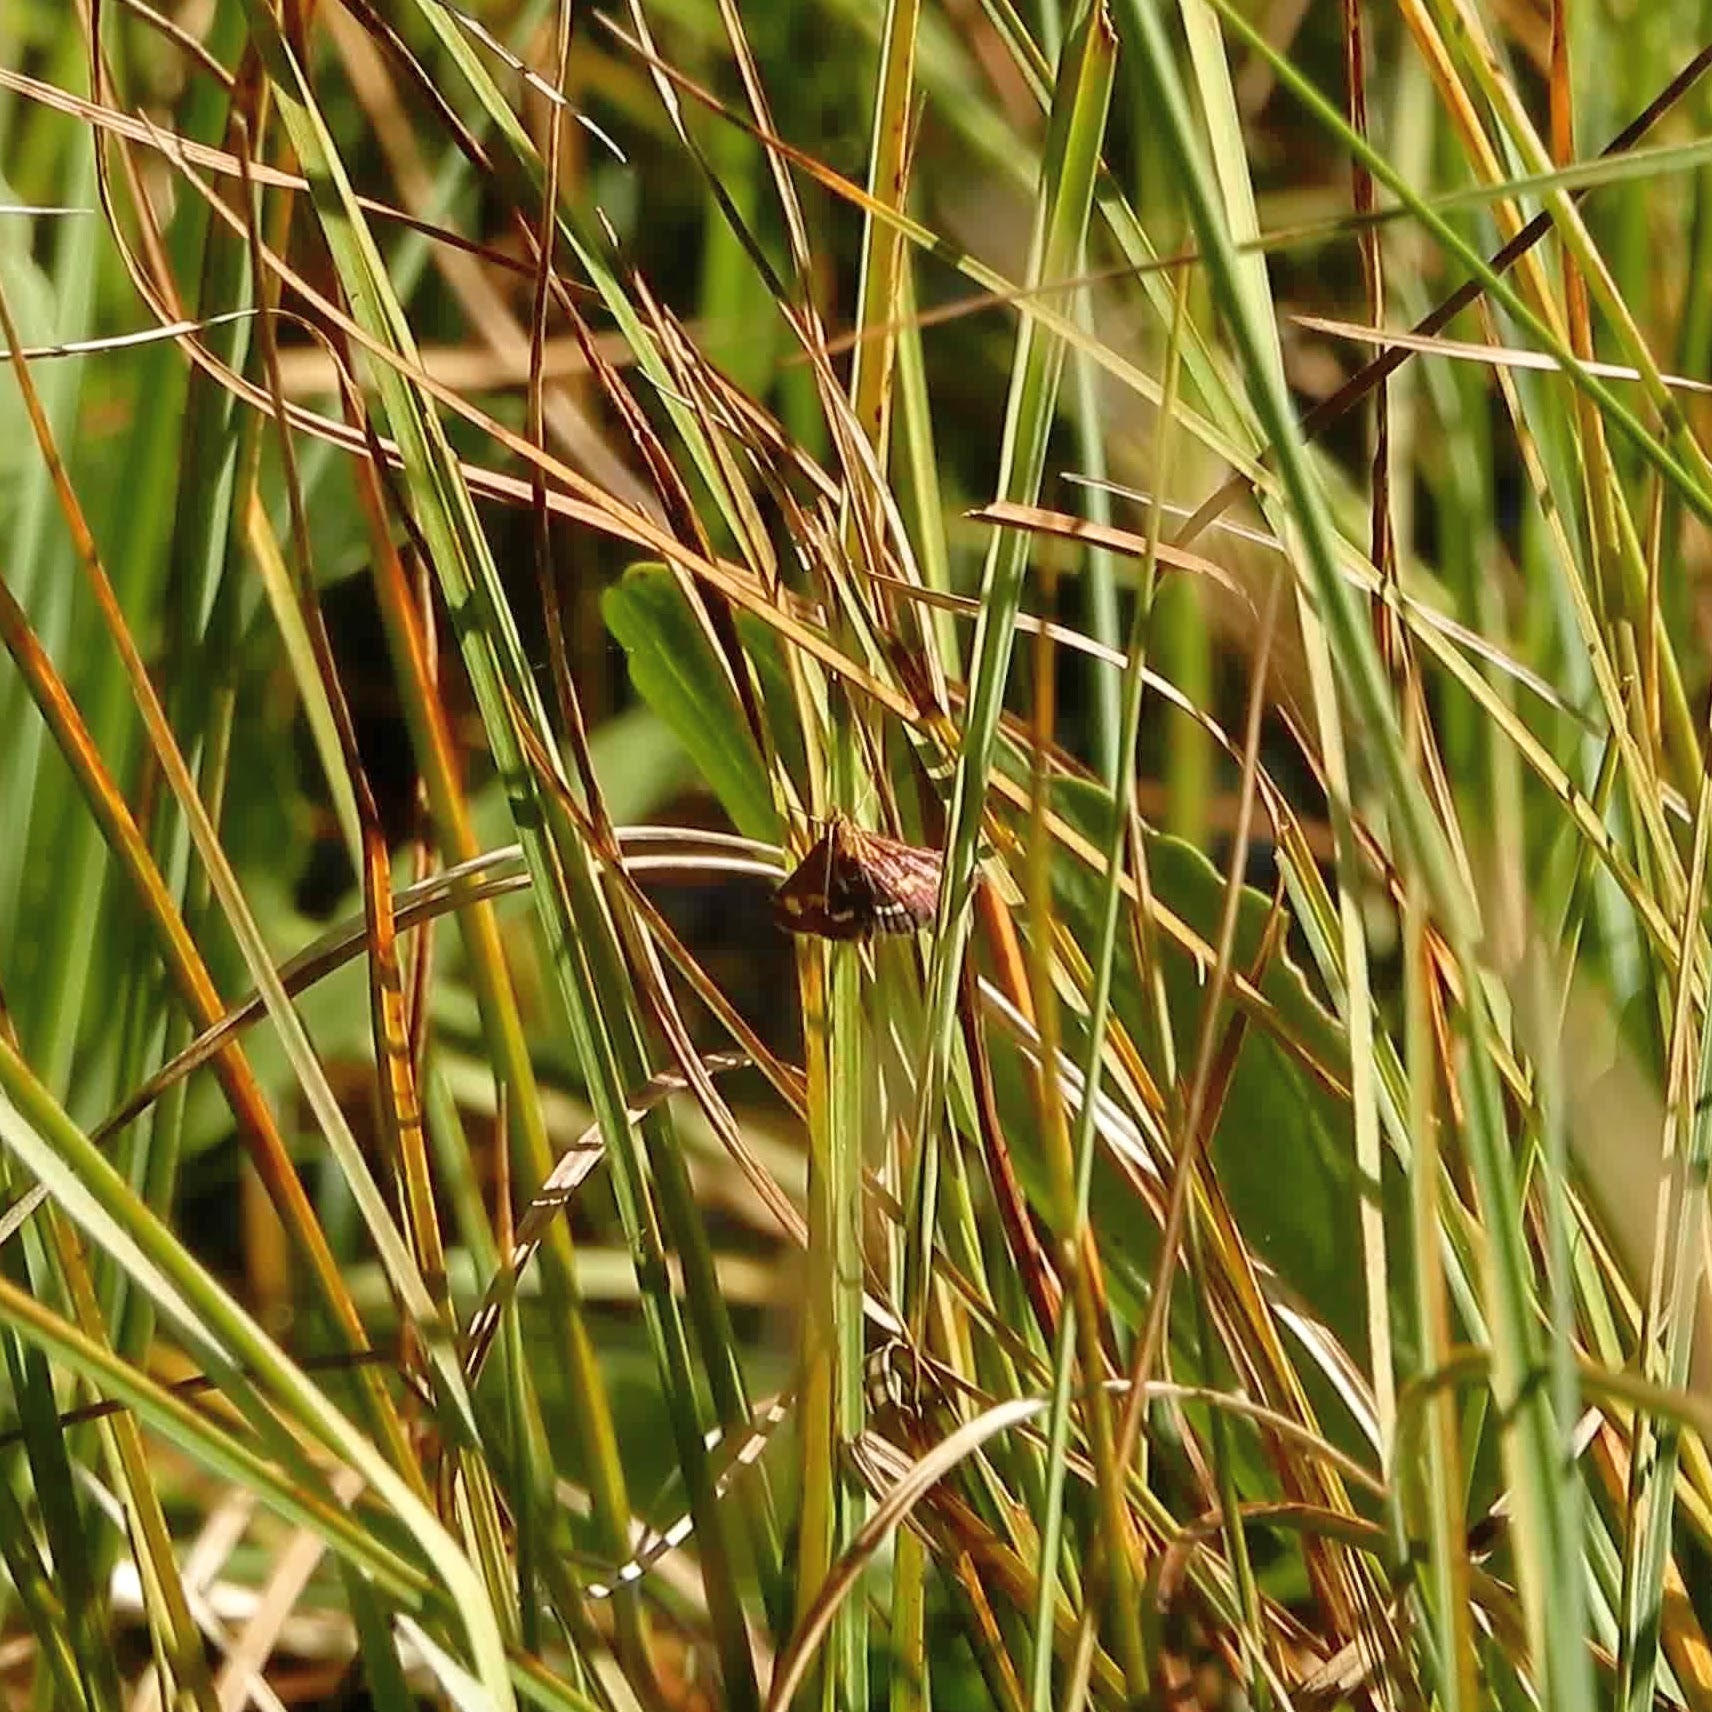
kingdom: Animalia
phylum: Arthropoda
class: Insecta
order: Lepidoptera
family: Crambidae
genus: Pyrausta
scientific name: Pyrausta purpuralis
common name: Common purple & gold
